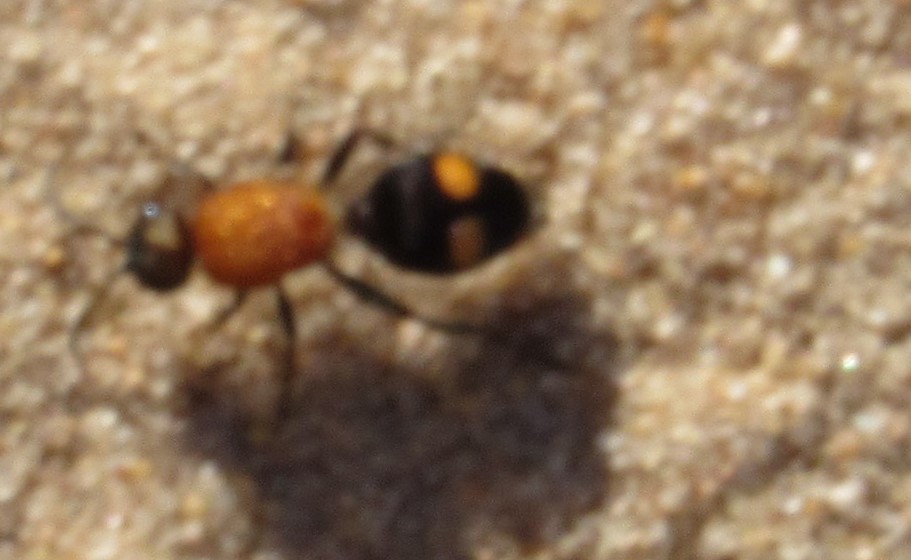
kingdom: Animalia
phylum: Arthropoda
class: Insecta
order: Hymenoptera
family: Mutillidae
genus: Dasymutilla
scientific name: Dasymutilla
